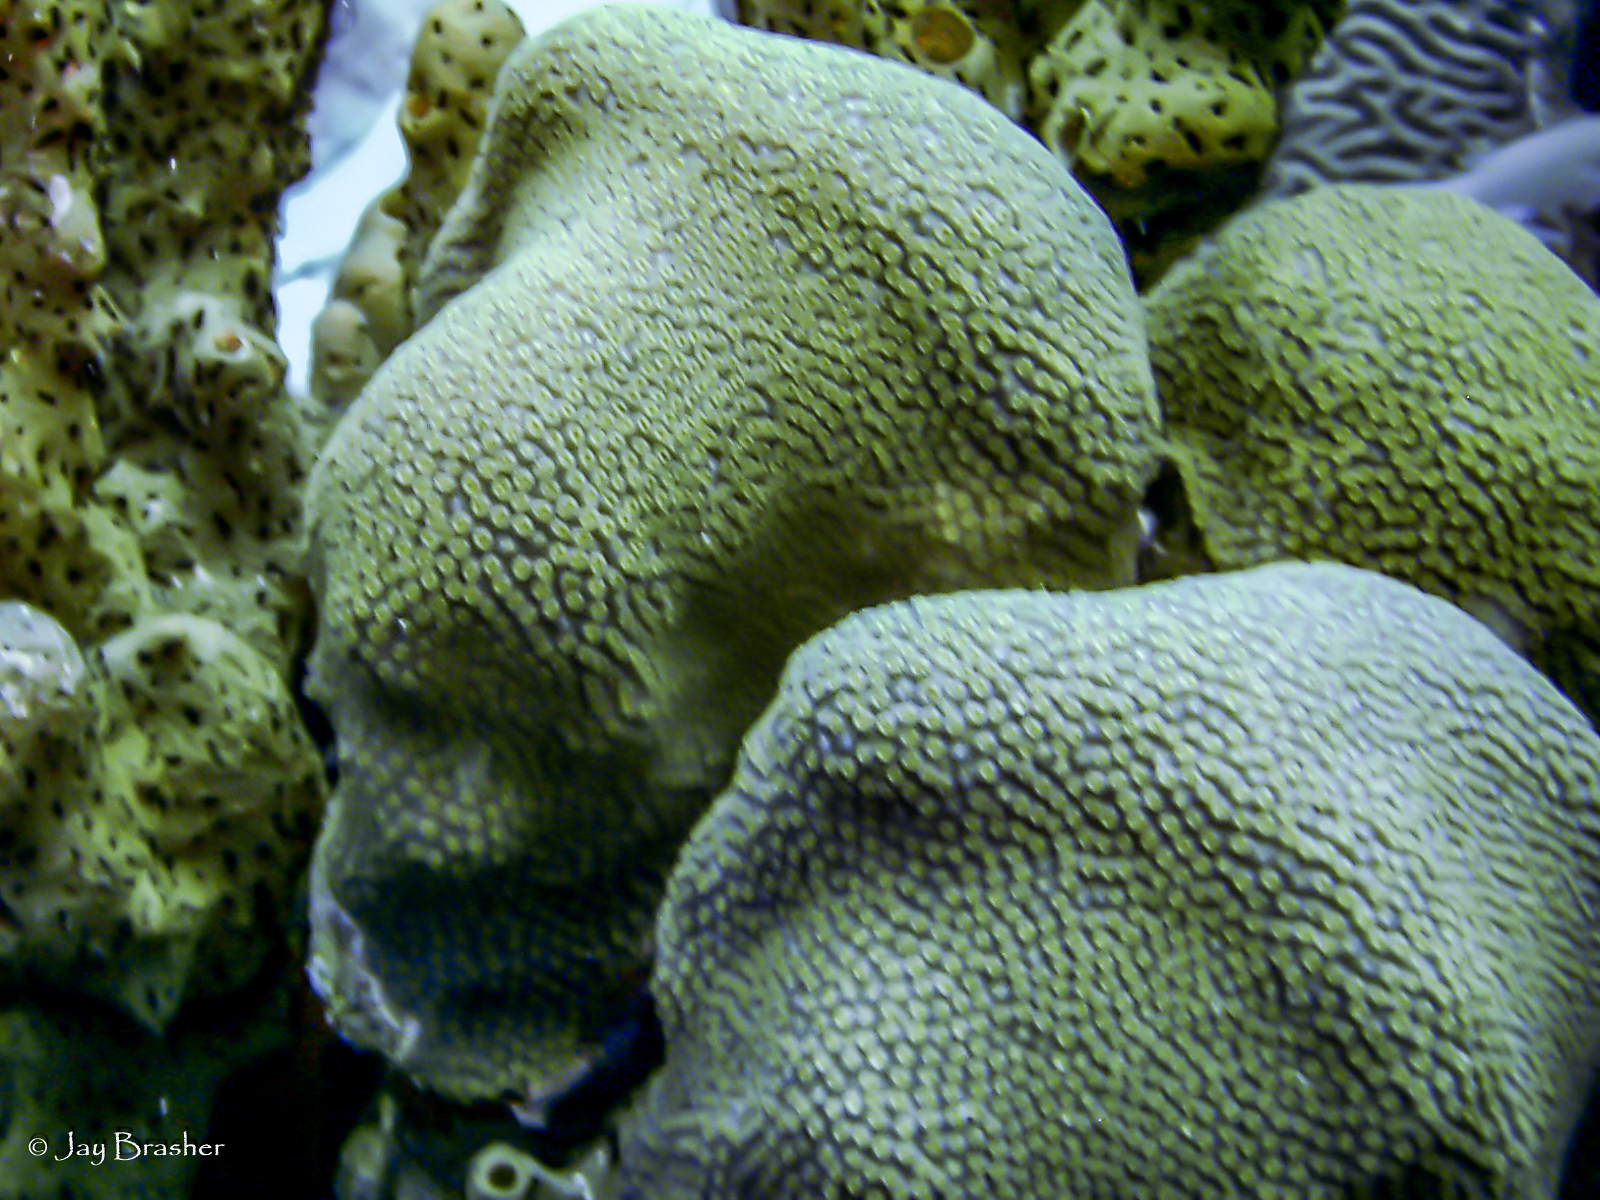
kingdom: Animalia
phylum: Cnidaria
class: Anthozoa
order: Scleractinia
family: Merulinidae
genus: Orbicella
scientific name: Orbicella annularis
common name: Boulder star coral
